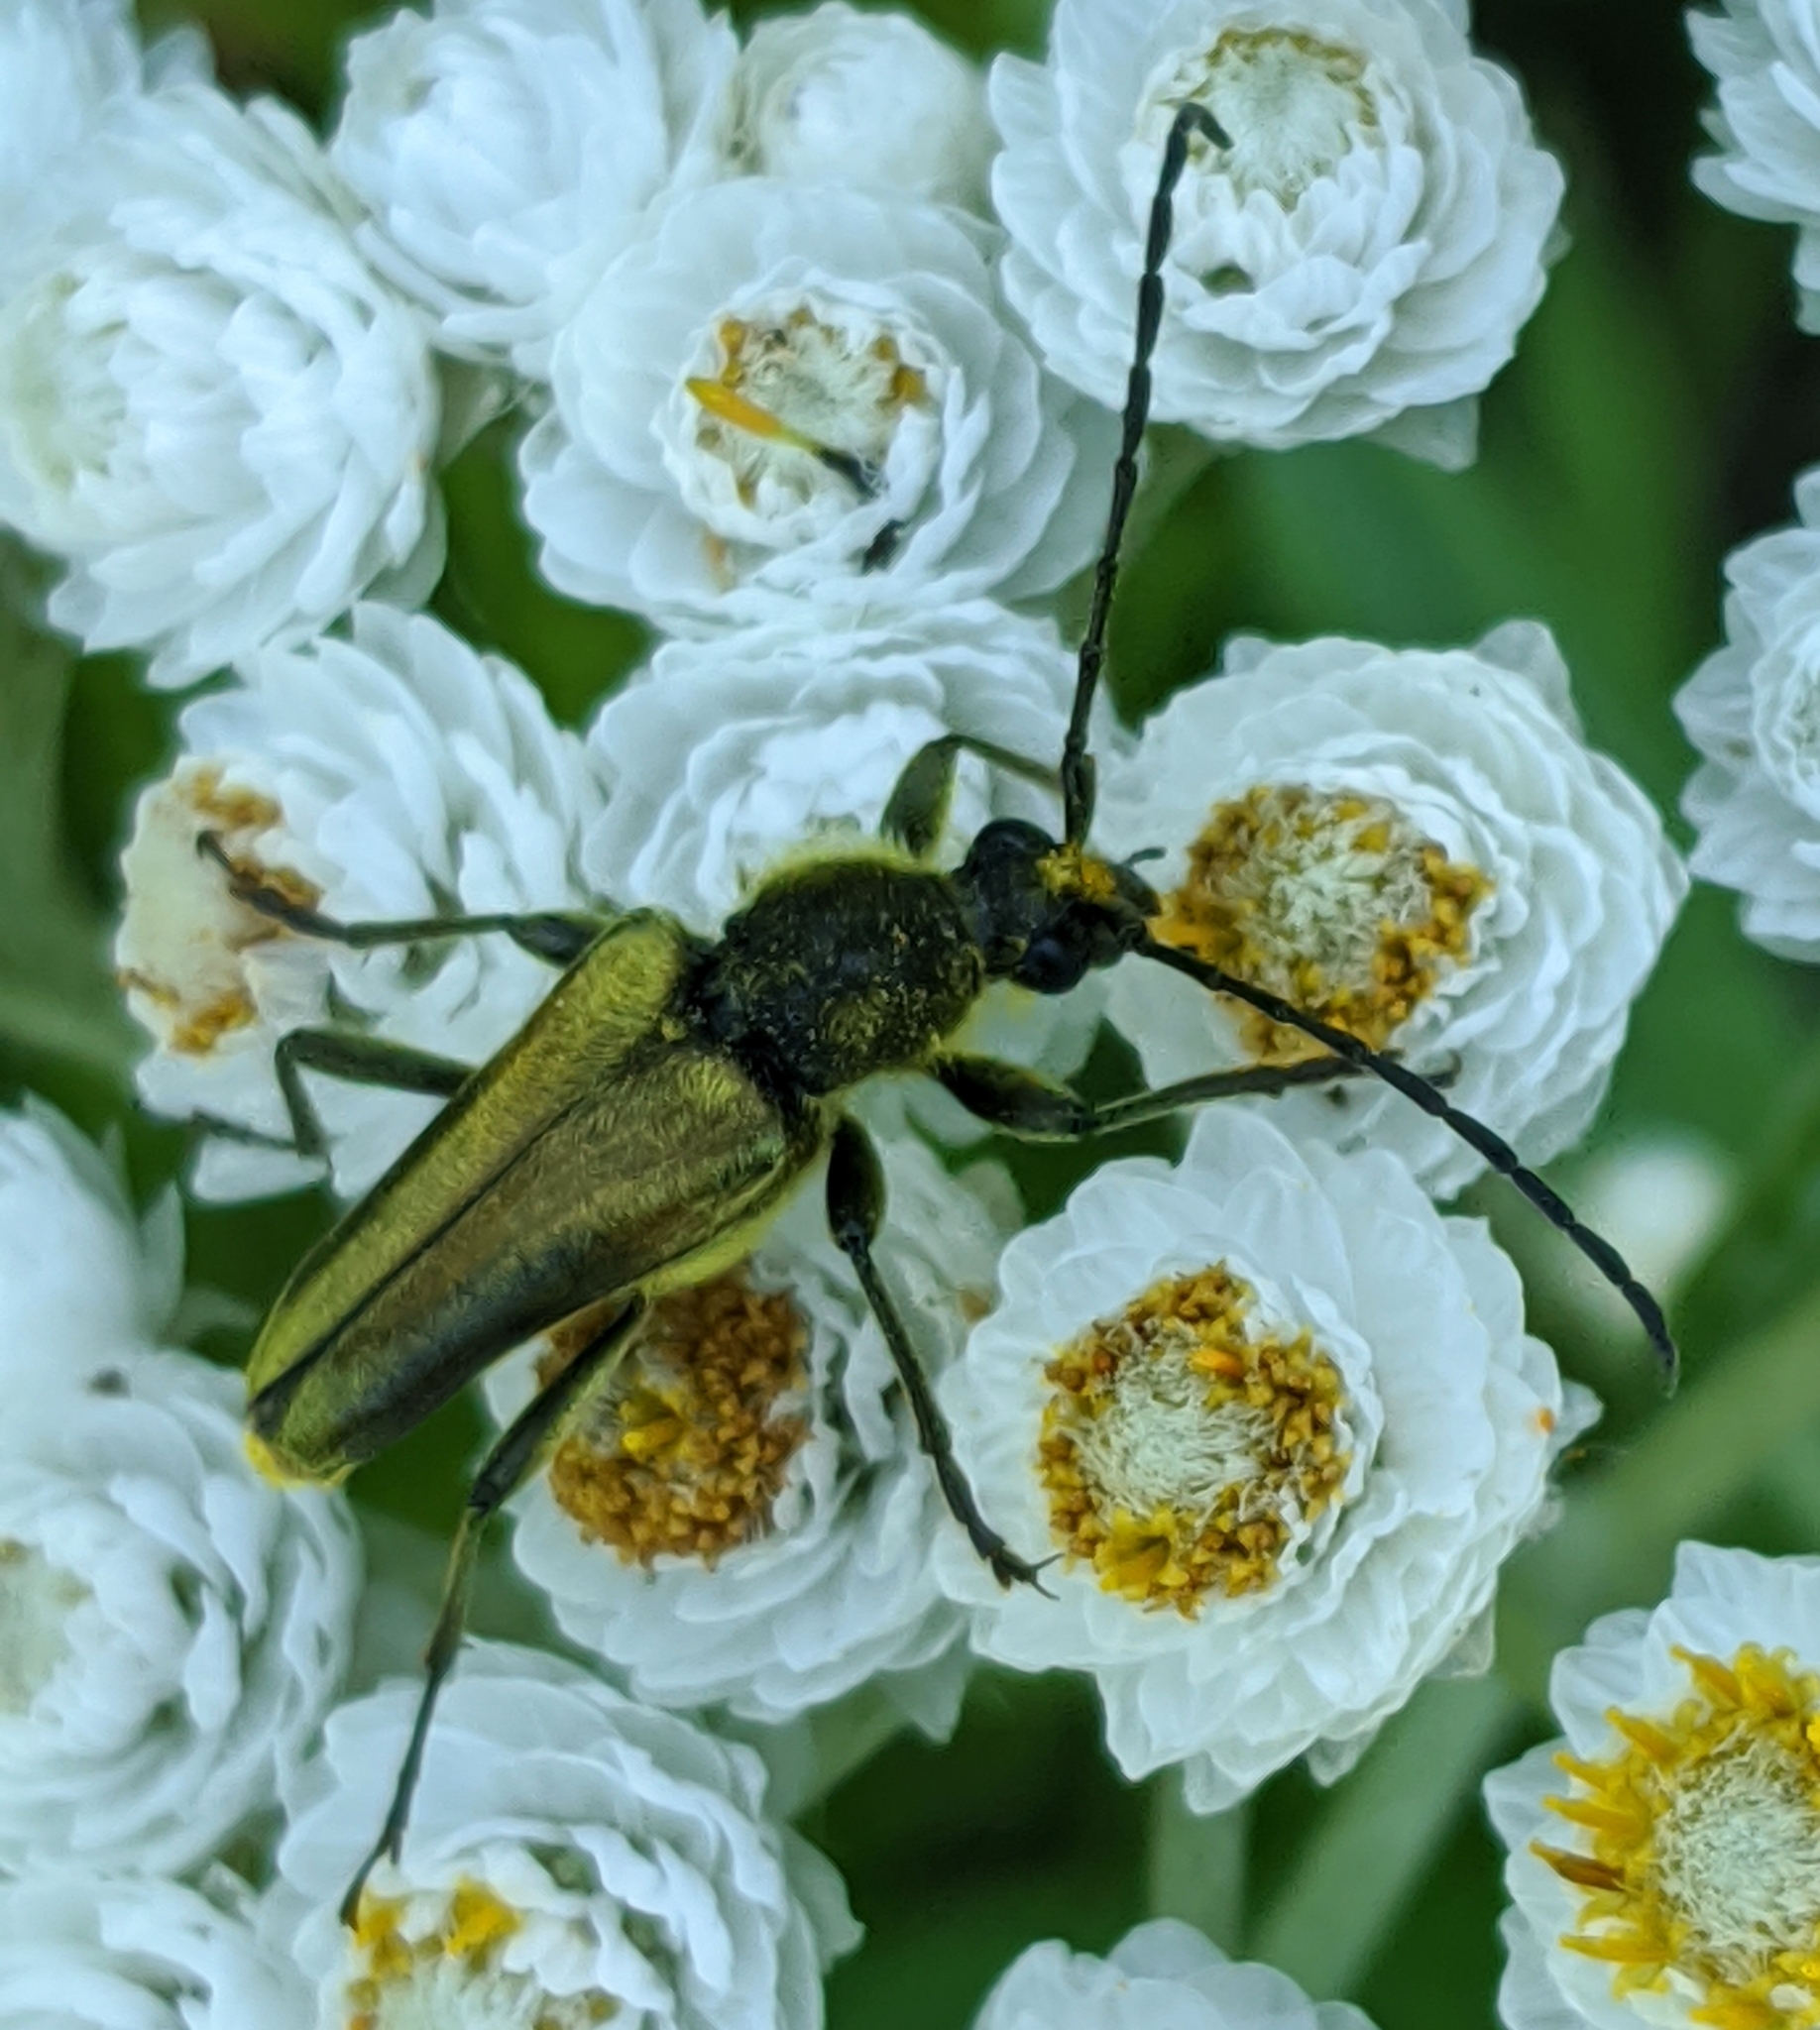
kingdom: Animalia
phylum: Arthropoda
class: Insecta
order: Coleoptera
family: Cerambycidae
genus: Cosmosalia
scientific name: Cosmosalia chrysocoma
